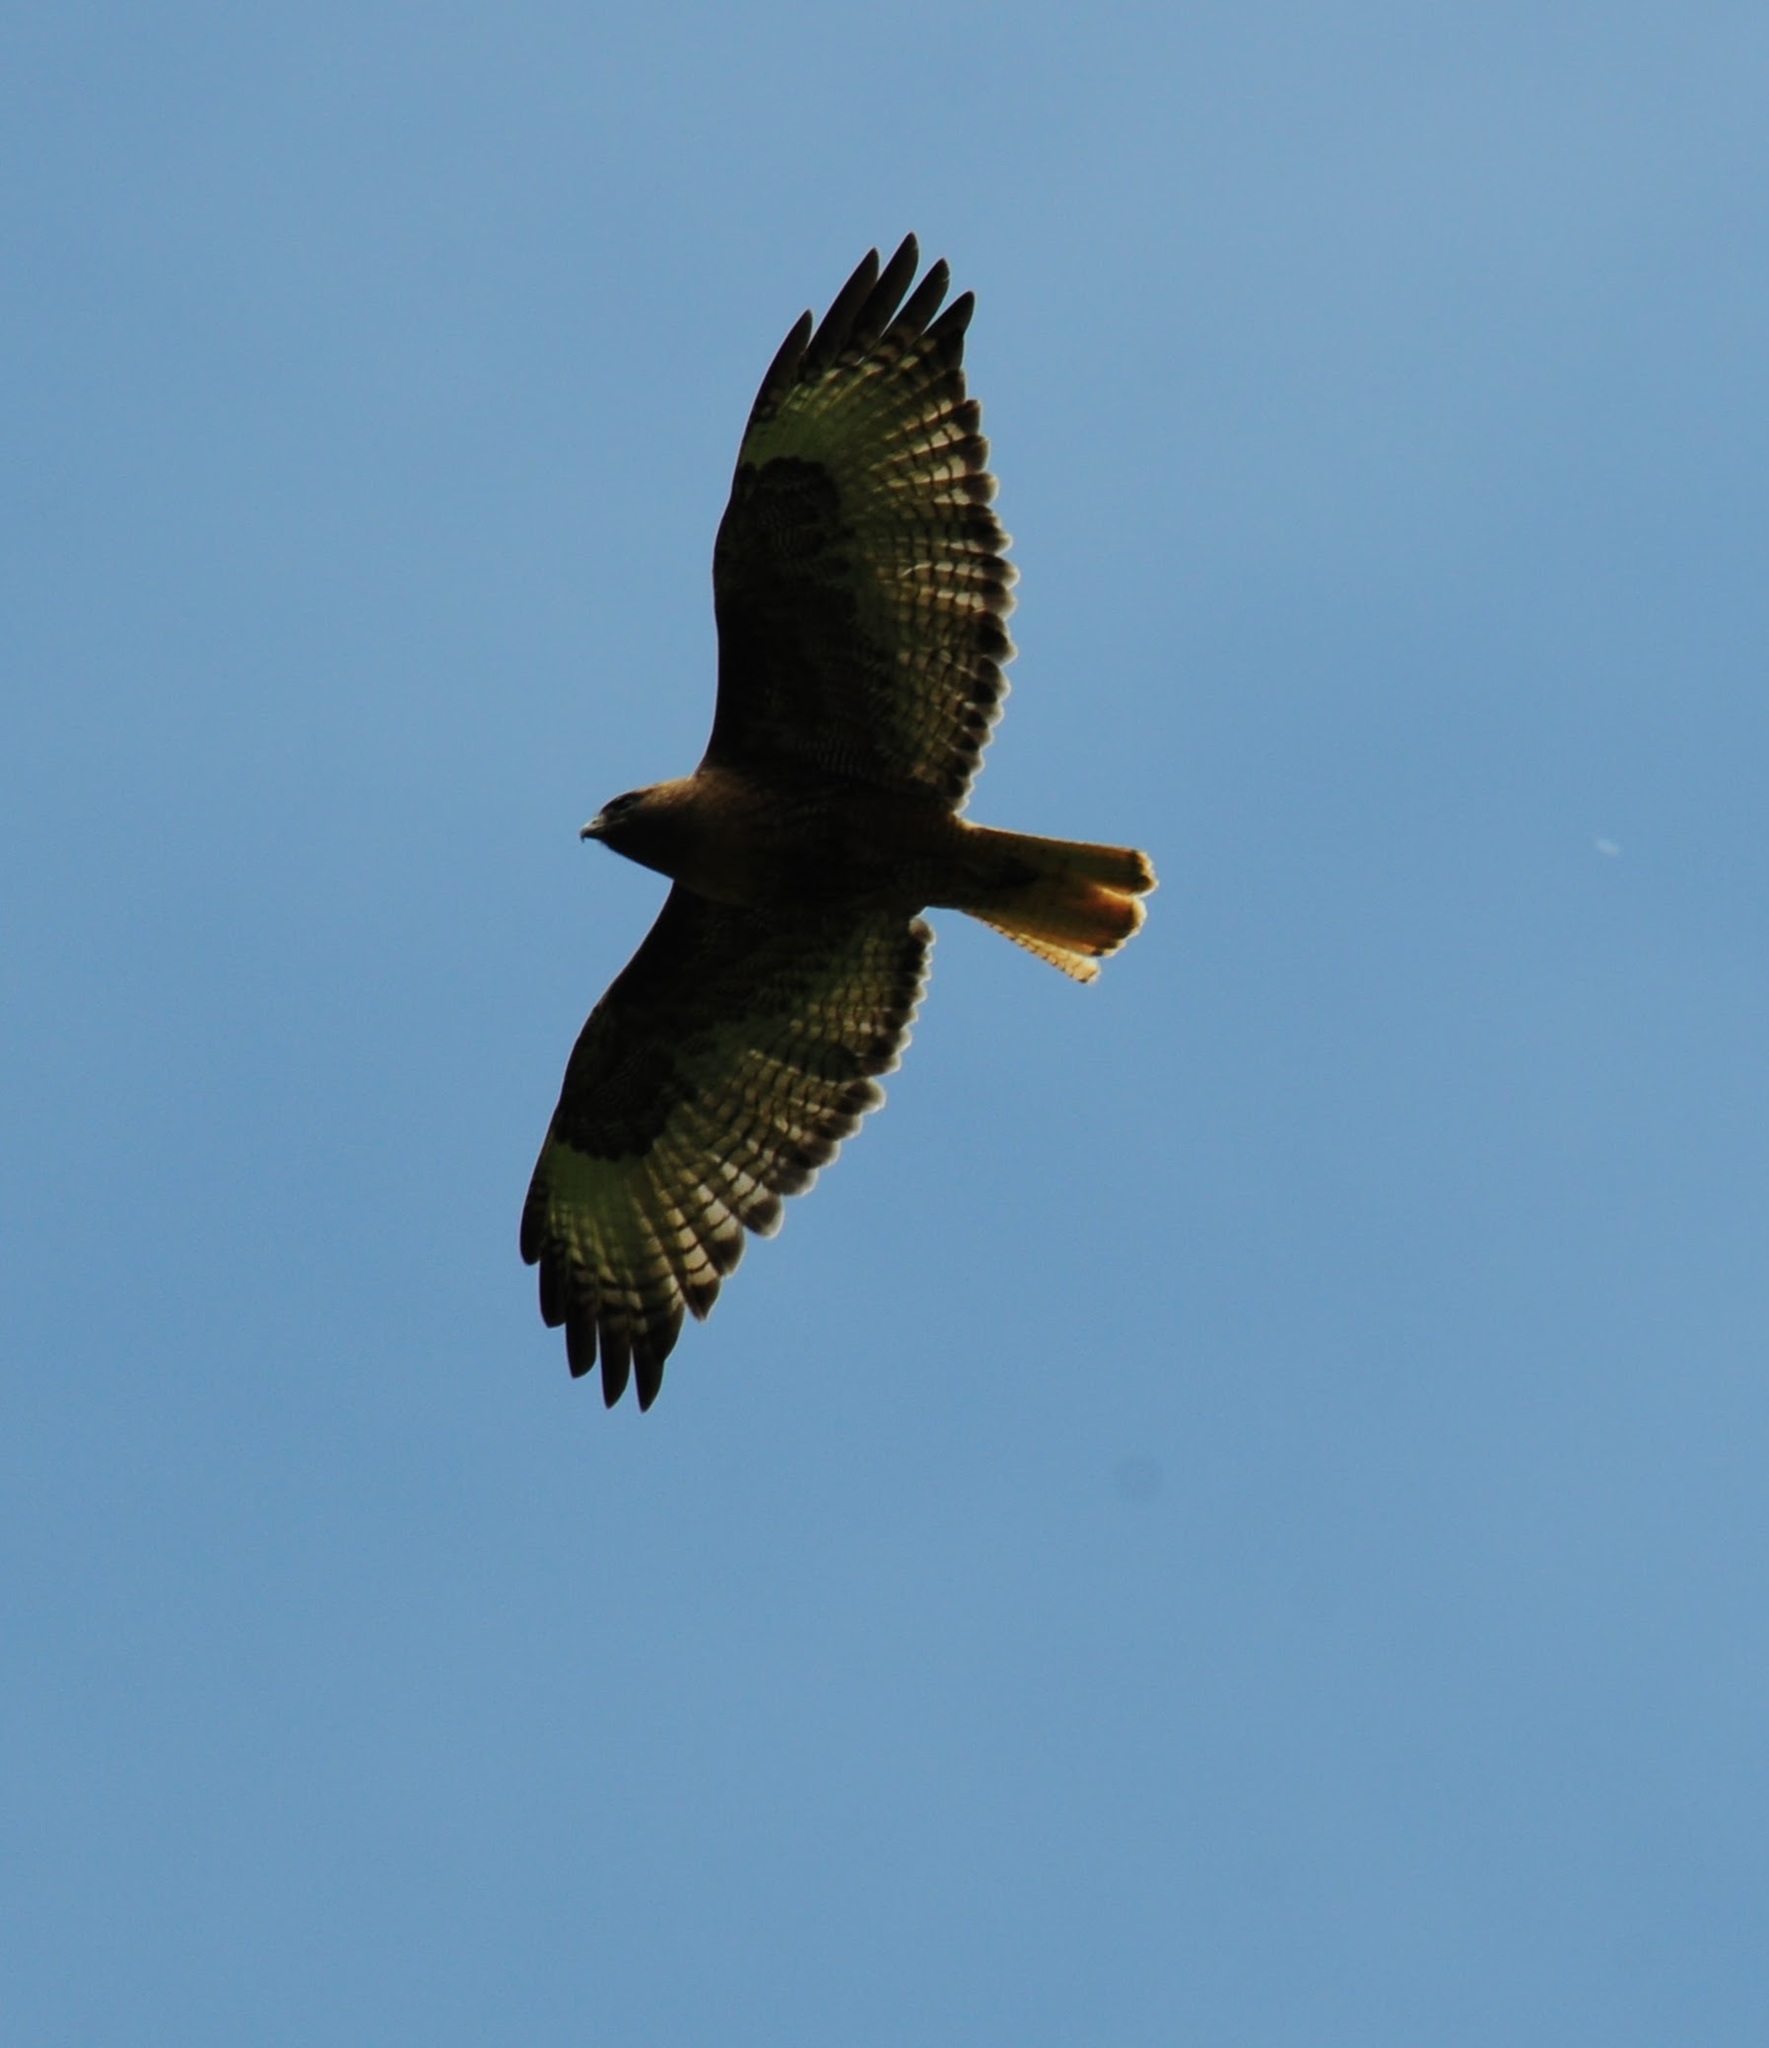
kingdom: Animalia
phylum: Chordata
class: Aves
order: Accipitriformes
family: Accipitridae
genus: Buteo
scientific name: Buteo jamaicensis
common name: Red-tailed hawk
